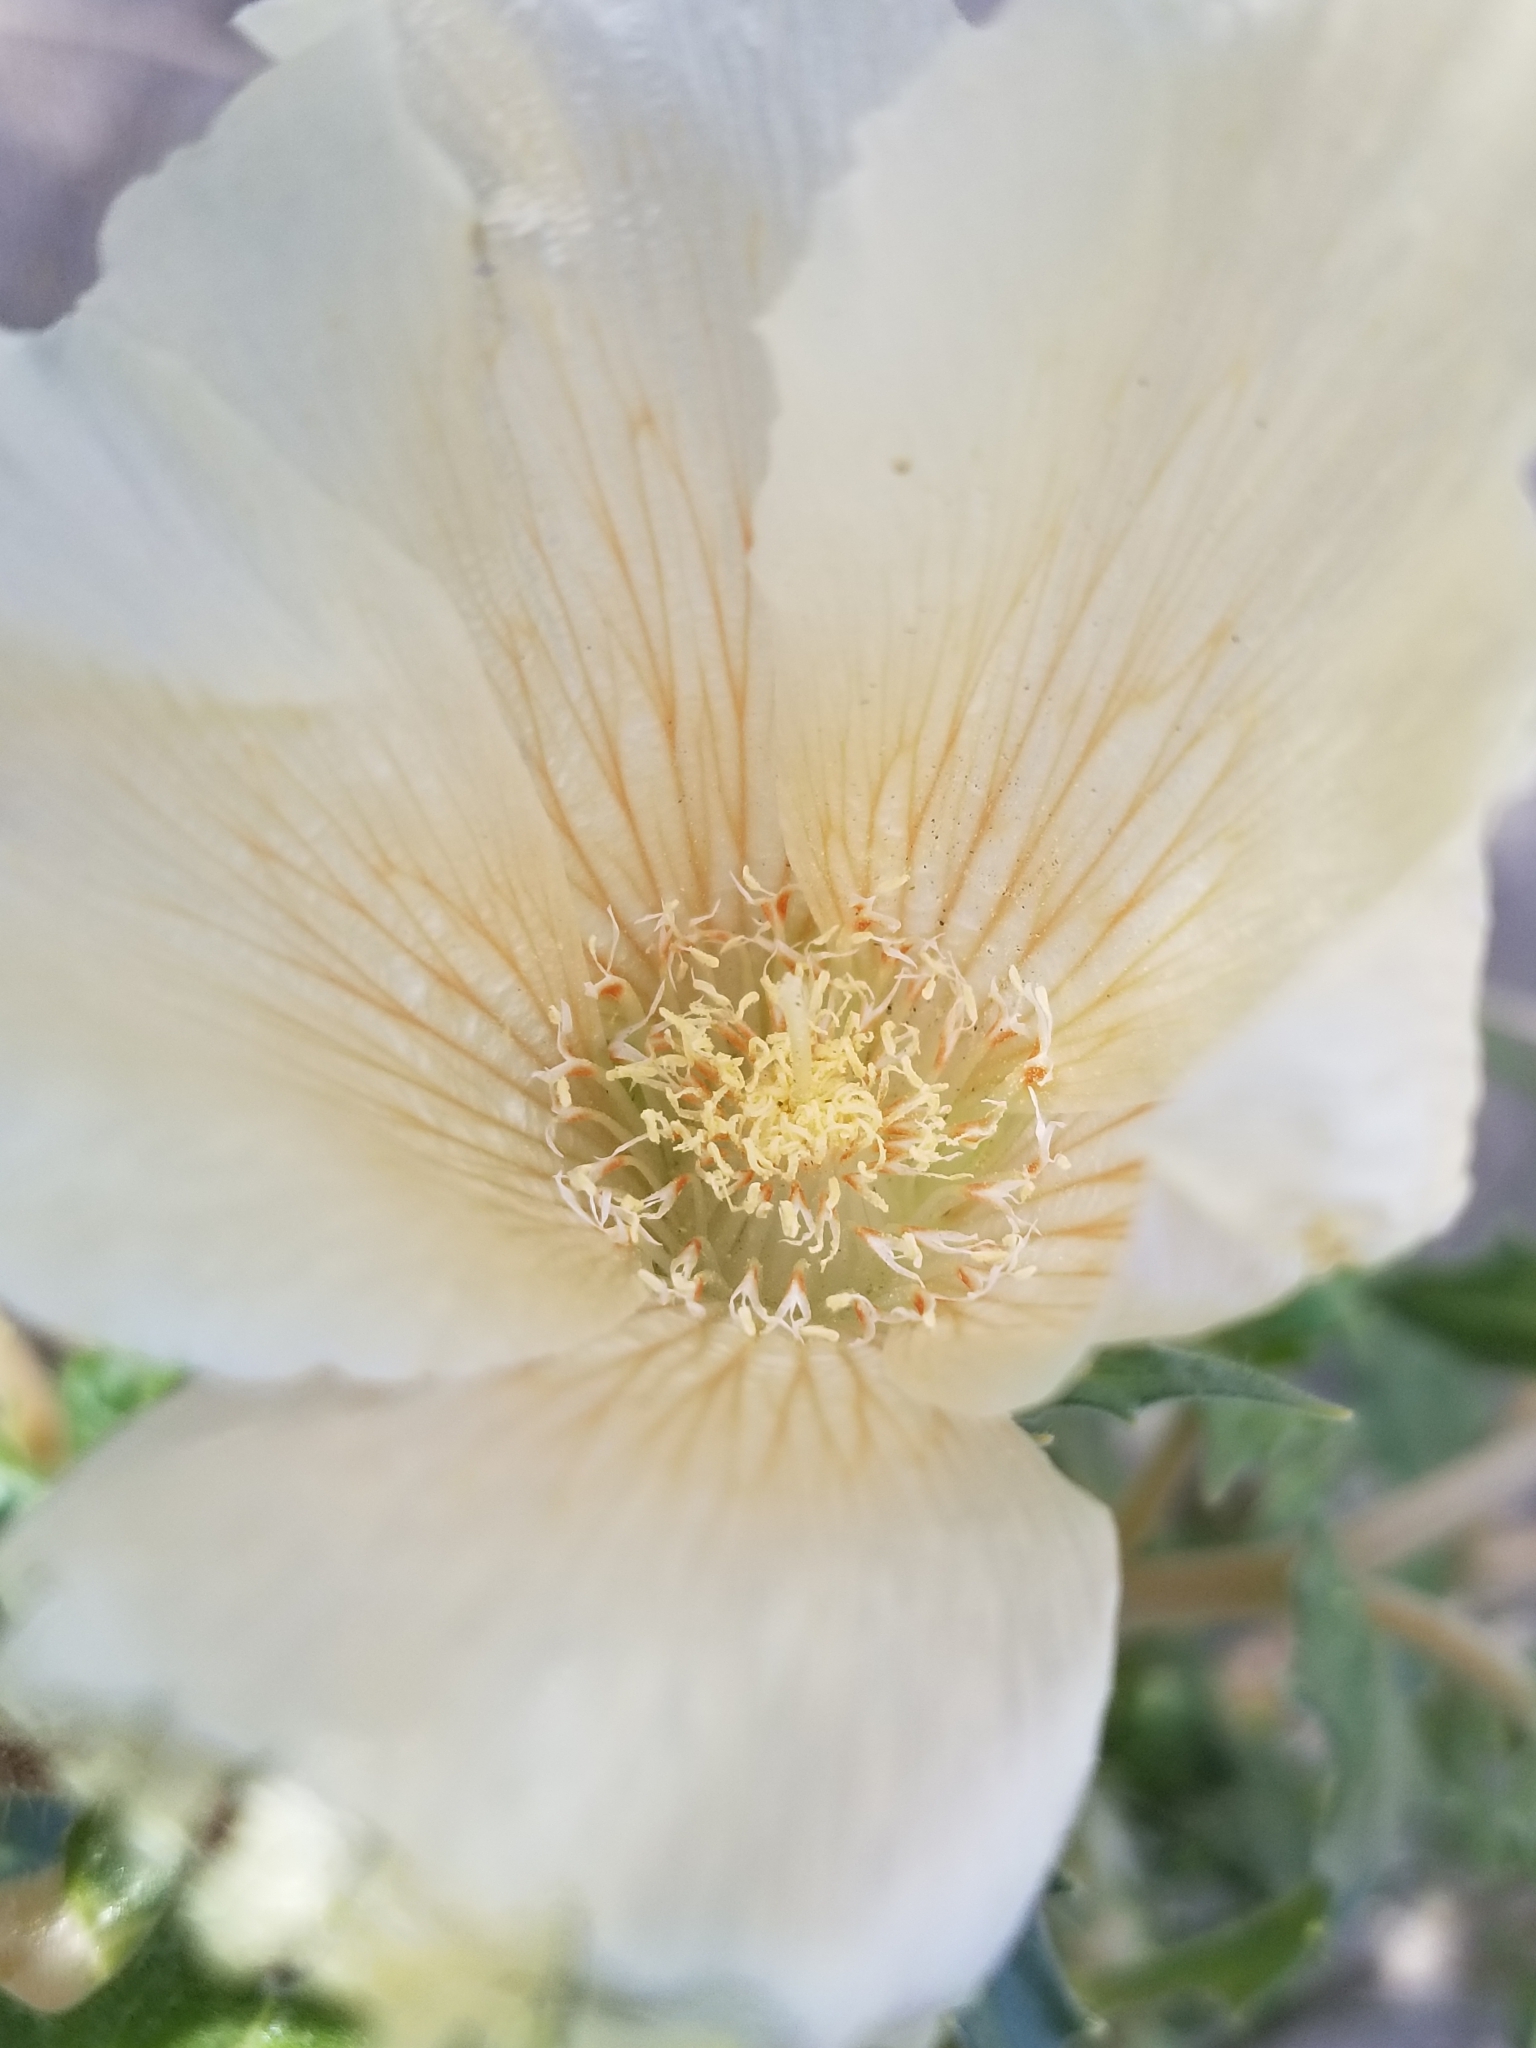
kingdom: Plantae
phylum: Tracheophyta
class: Magnoliopsida
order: Cornales
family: Loasaceae
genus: Mentzelia
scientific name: Mentzelia involucrata
